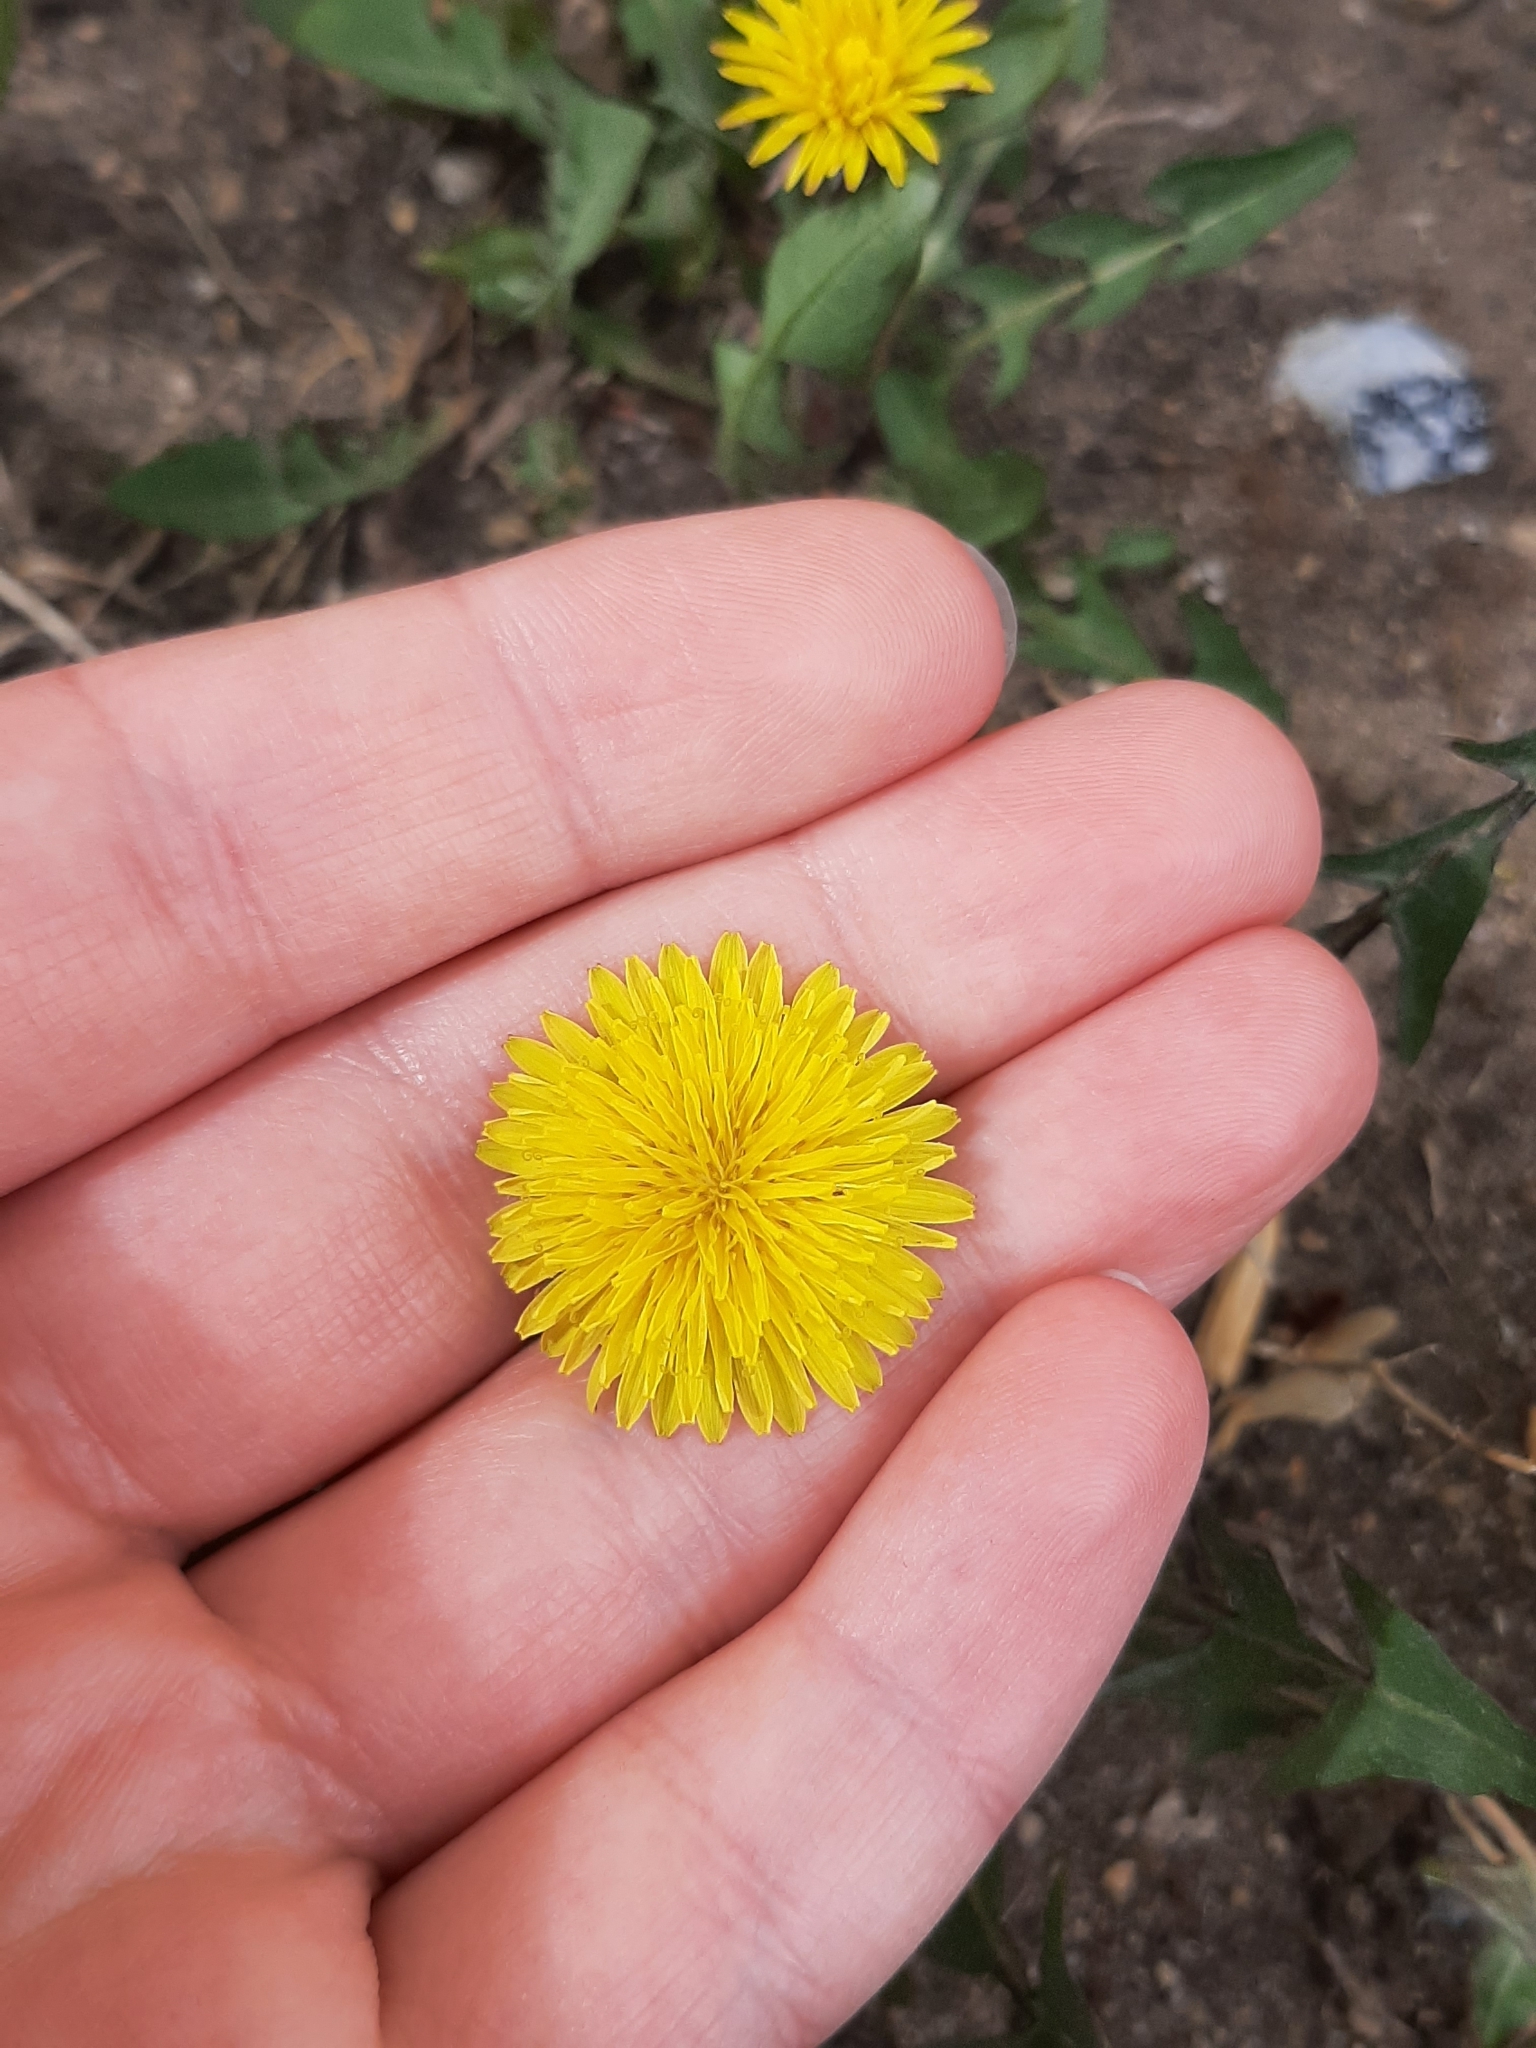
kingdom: Plantae
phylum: Tracheophyta
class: Magnoliopsida
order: Asterales
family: Asteraceae
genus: Taraxacum
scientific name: Taraxacum officinale
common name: Common dandelion
